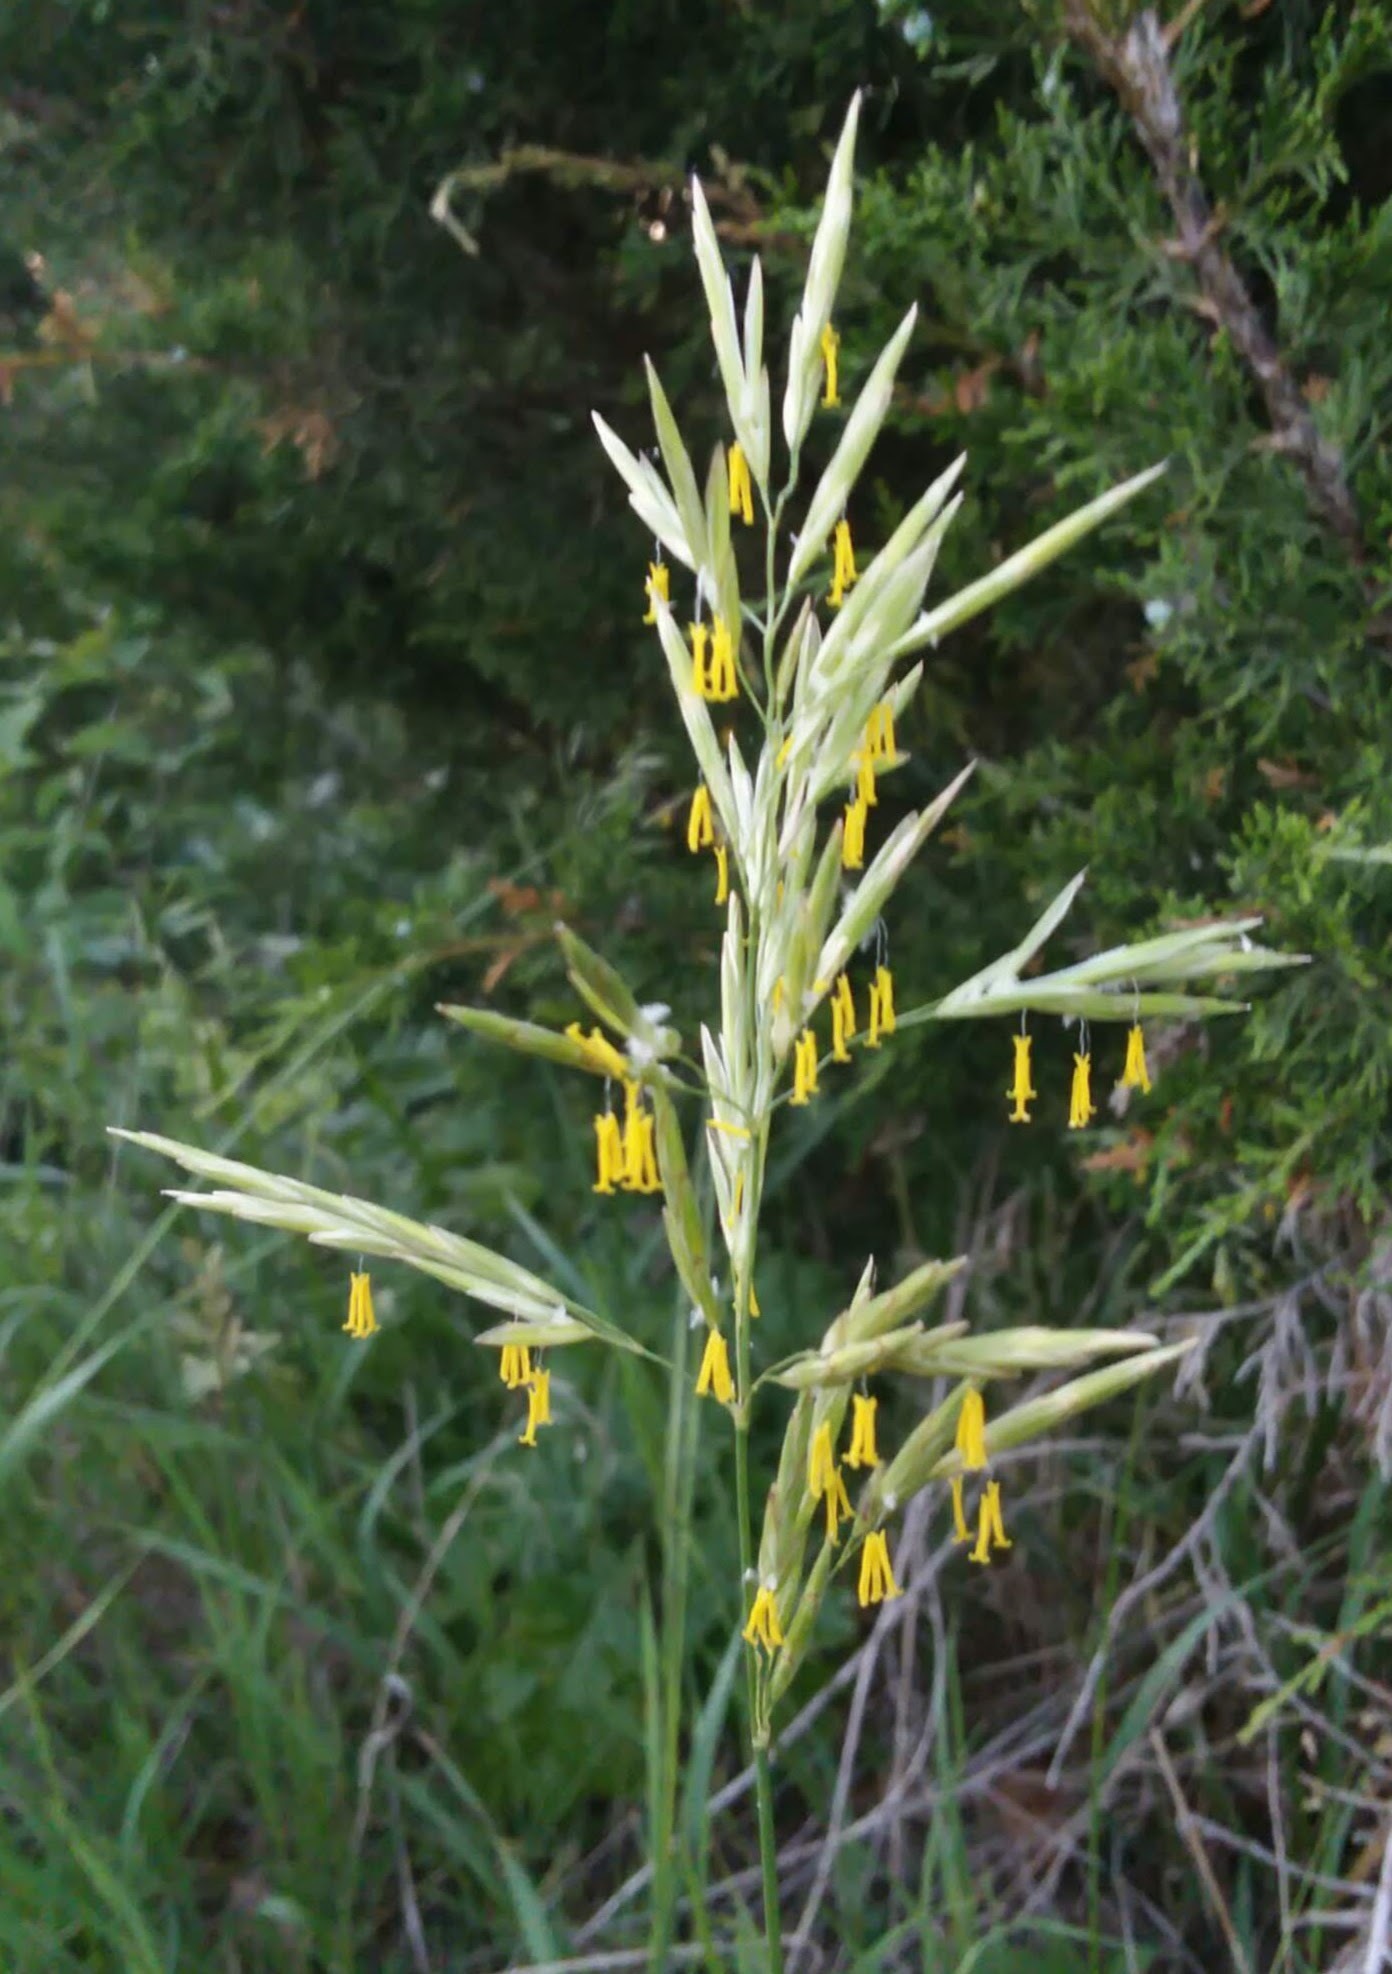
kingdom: Plantae
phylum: Tracheophyta
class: Liliopsida
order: Poales
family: Poaceae
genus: Bromus
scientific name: Bromus inermis
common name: Smooth brome
